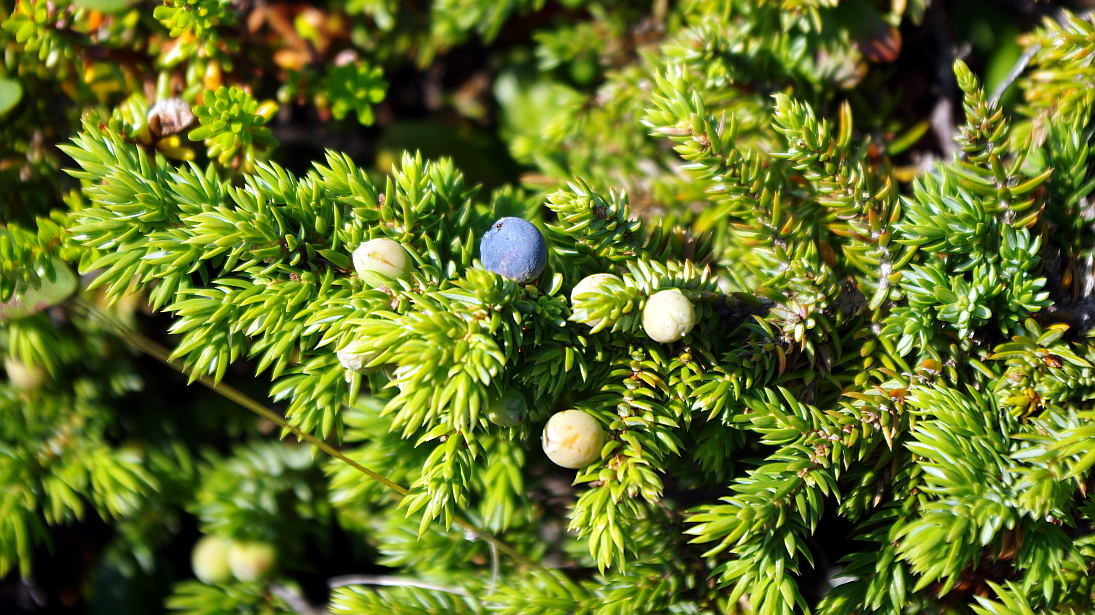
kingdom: Plantae
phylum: Tracheophyta
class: Pinopsida
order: Pinales
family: Cupressaceae
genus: Juniperus
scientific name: Juniperus communis
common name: Common juniper
